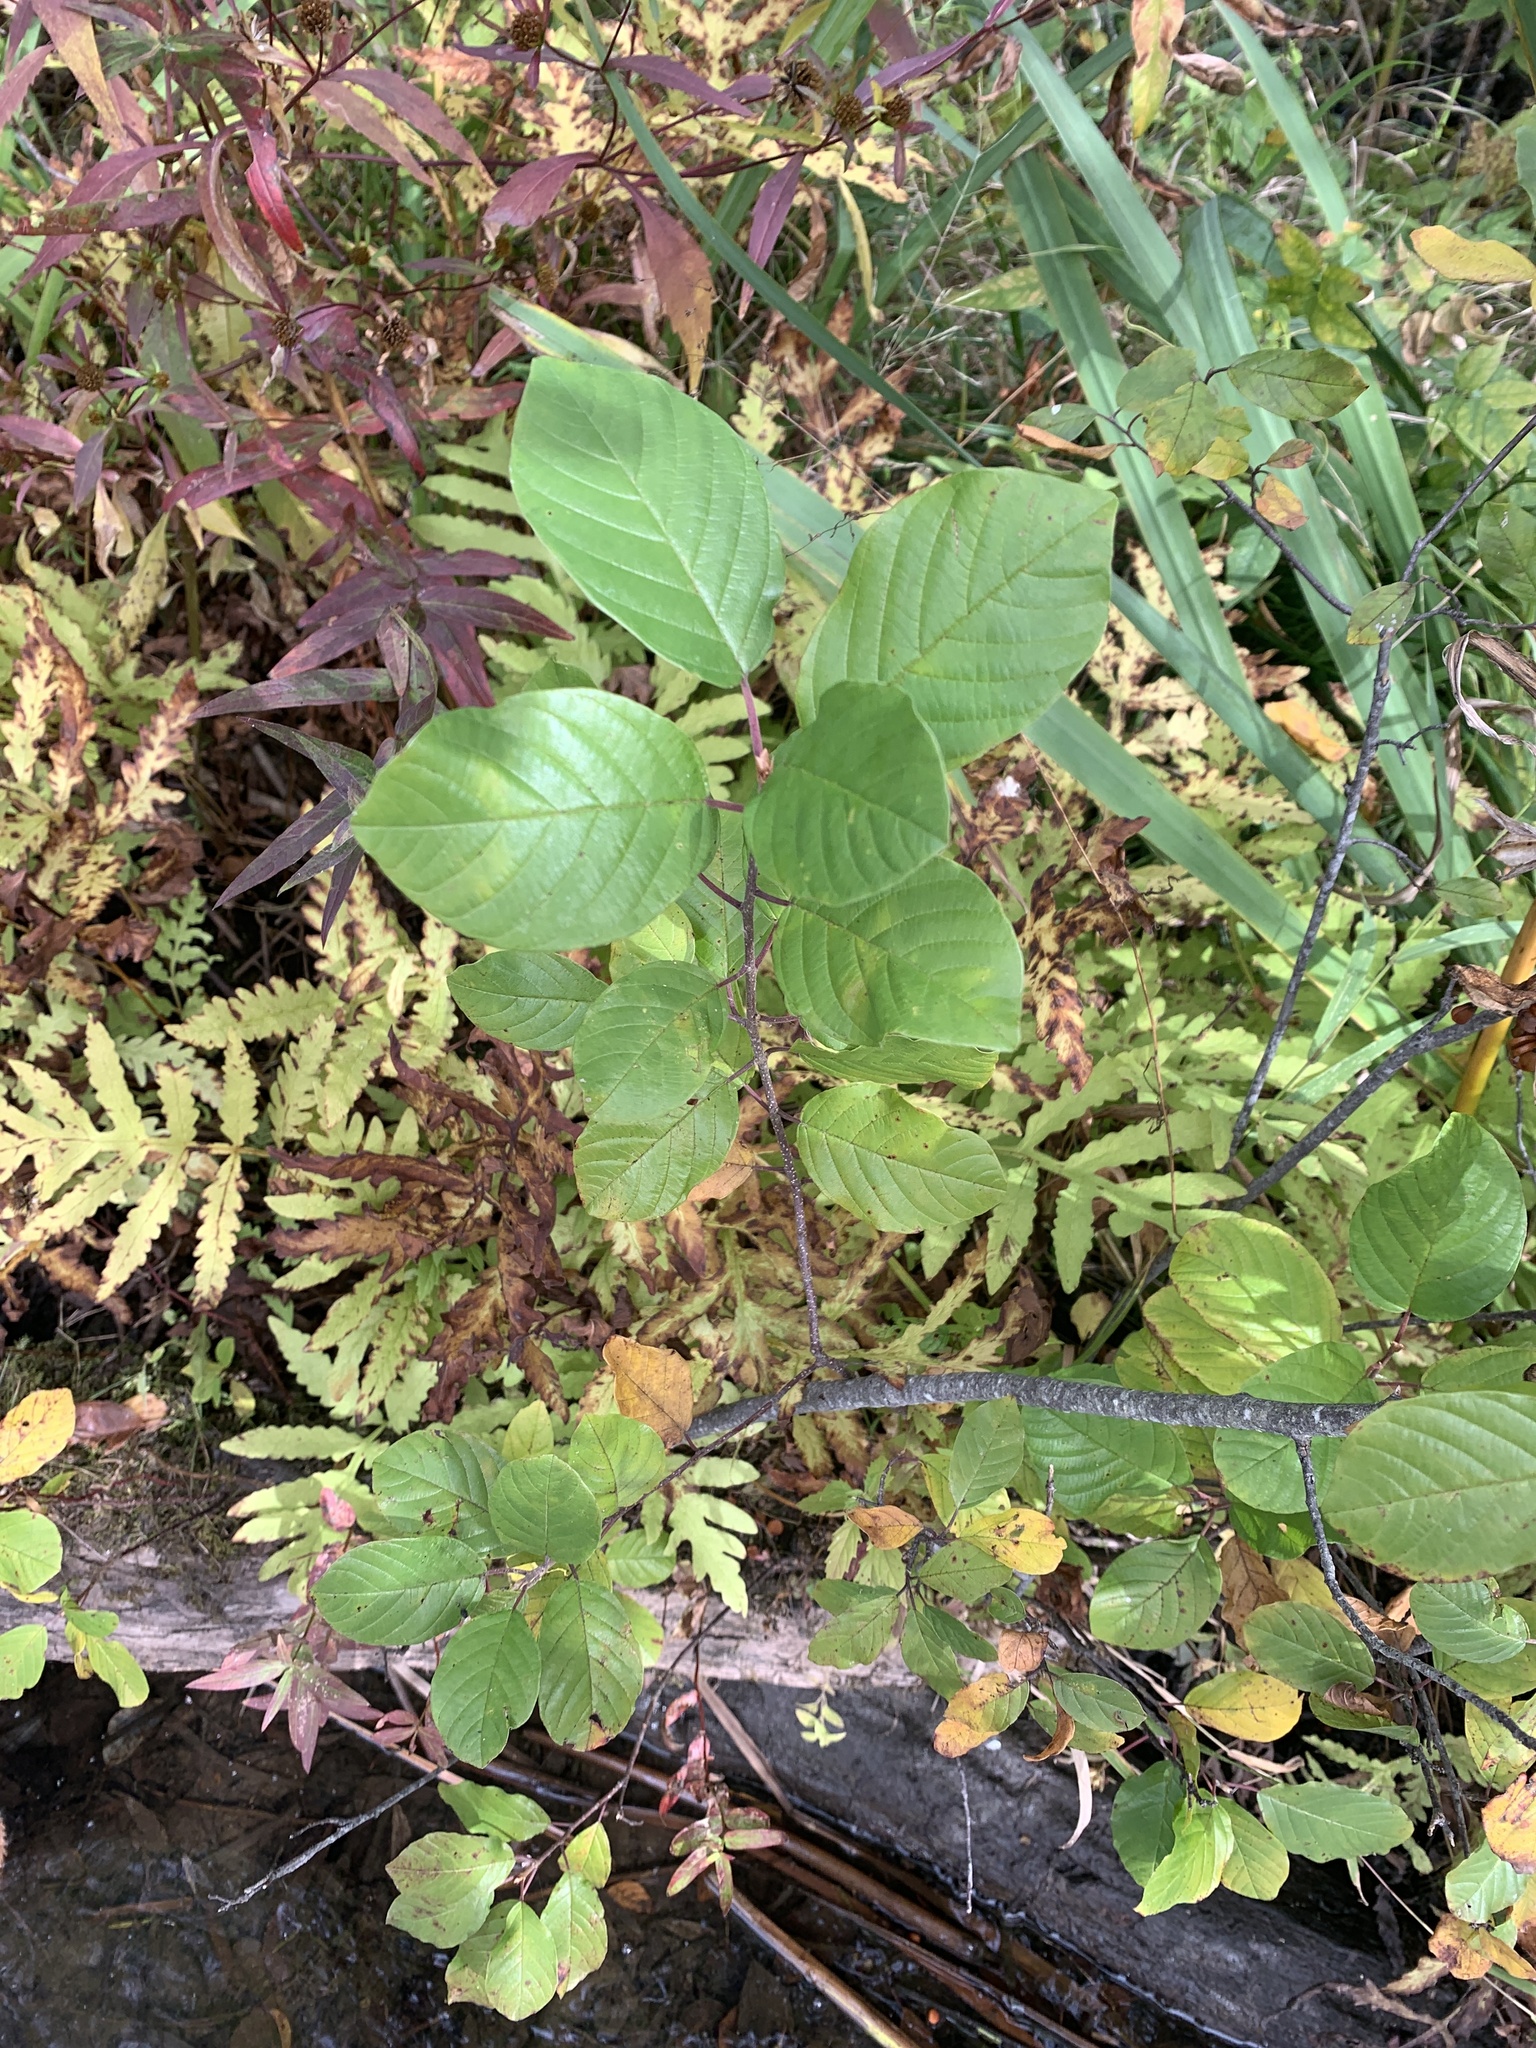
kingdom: Plantae
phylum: Tracheophyta
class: Magnoliopsida
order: Rosales
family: Rhamnaceae
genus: Frangula
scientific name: Frangula alnus
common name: Alder buckthorn
